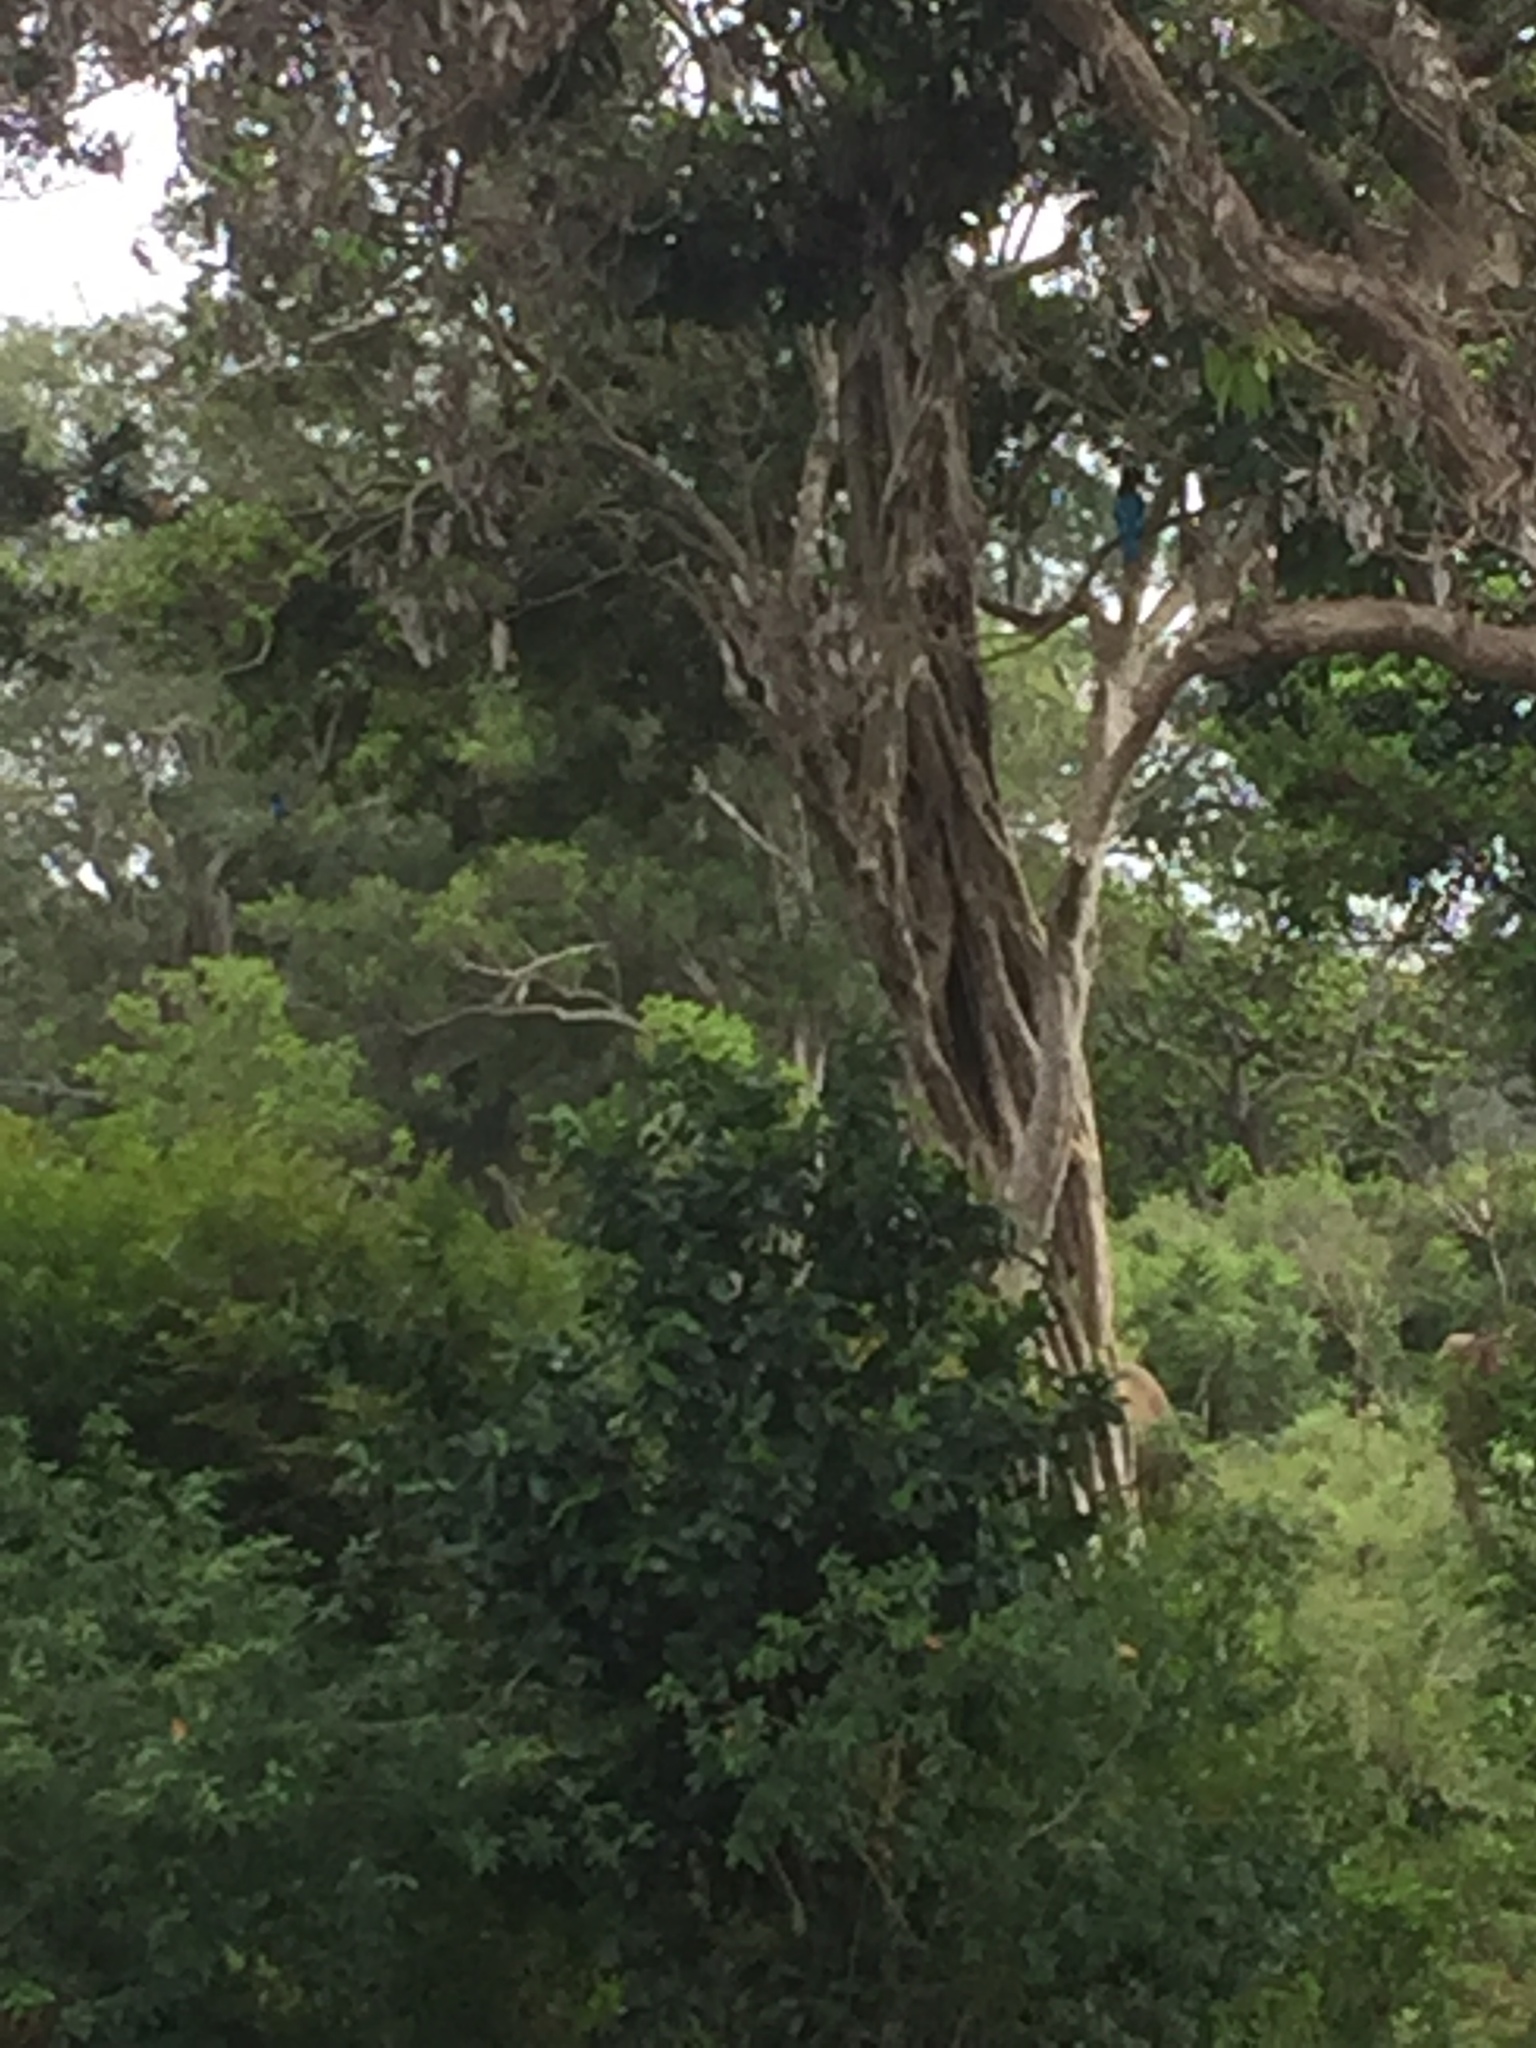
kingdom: Animalia
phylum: Chordata
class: Aves
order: Coraciiformes
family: Alcedinidae
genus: Halcyon
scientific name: Halcyon smyrnensis
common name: White-throated kingfisher
